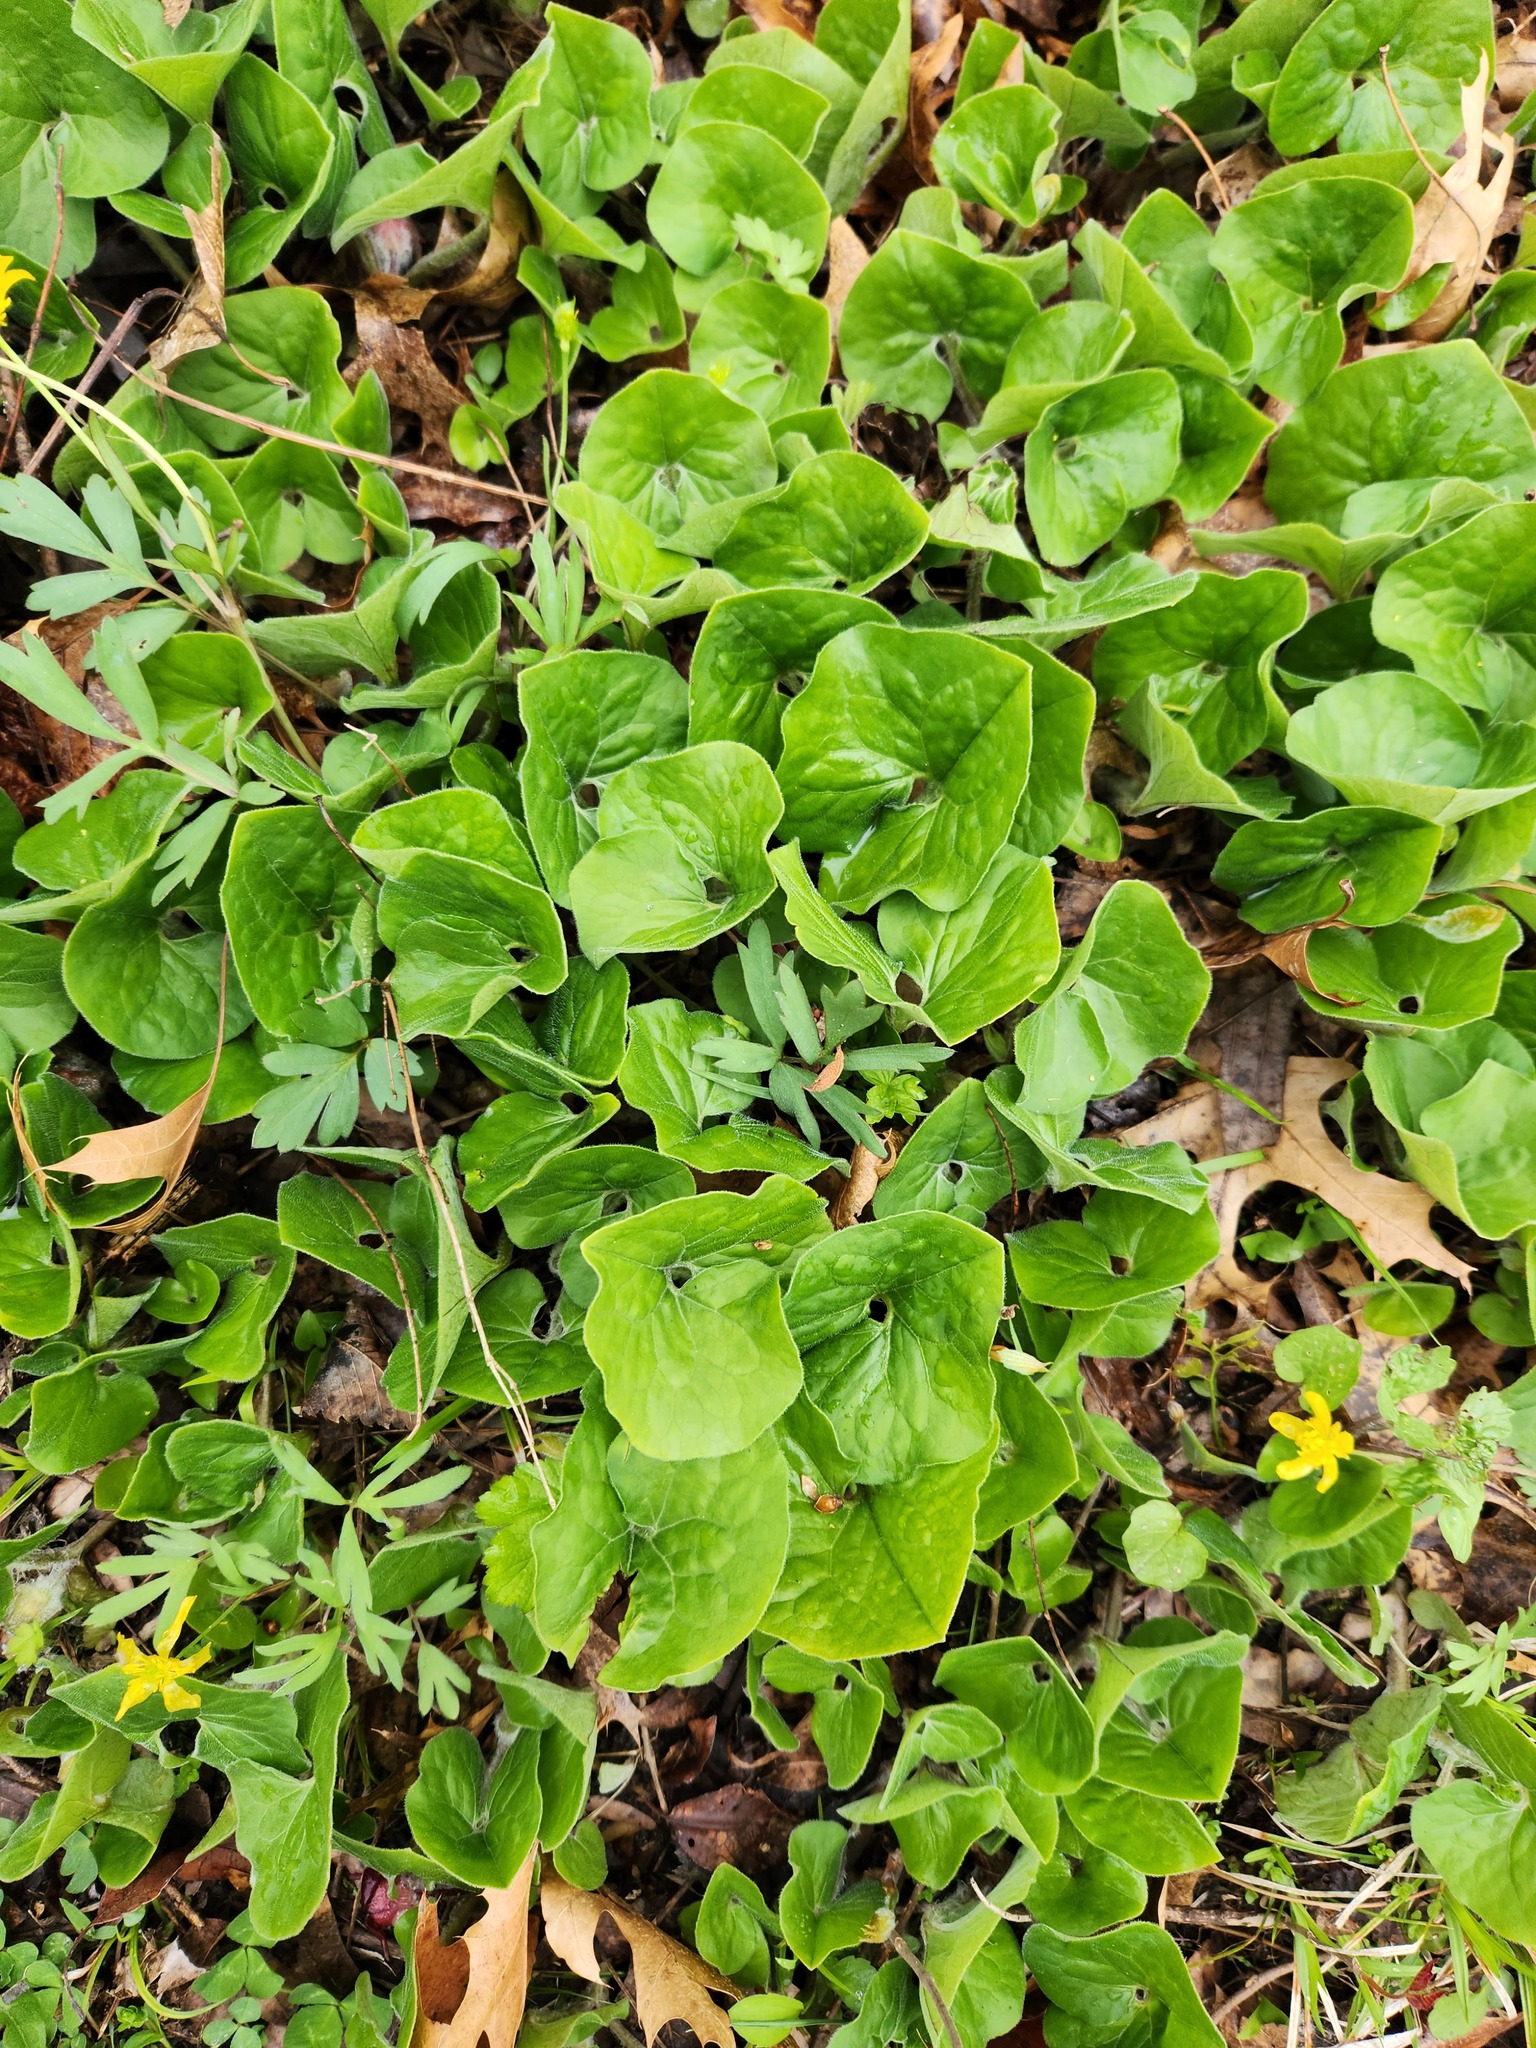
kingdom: Plantae
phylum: Tracheophyta
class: Magnoliopsida
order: Piperales
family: Aristolochiaceae
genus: Asarum
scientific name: Asarum canadense
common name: Wild ginger
